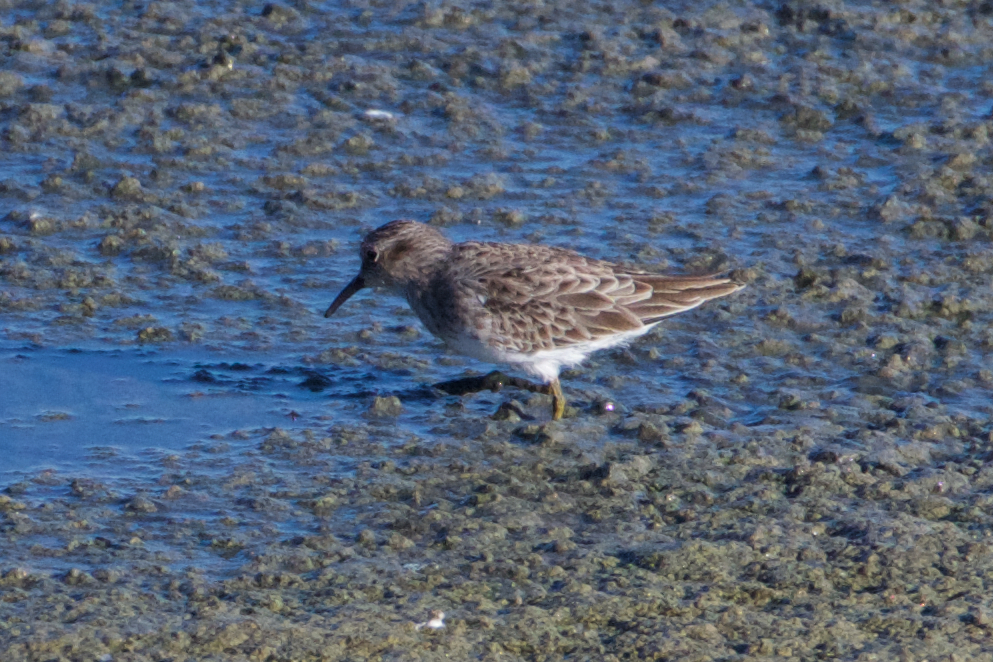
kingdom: Animalia
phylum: Chordata
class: Aves
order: Charadriiformes
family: Scolopacidae
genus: Calidris
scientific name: Calidris minutilla
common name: Least sandpiper
